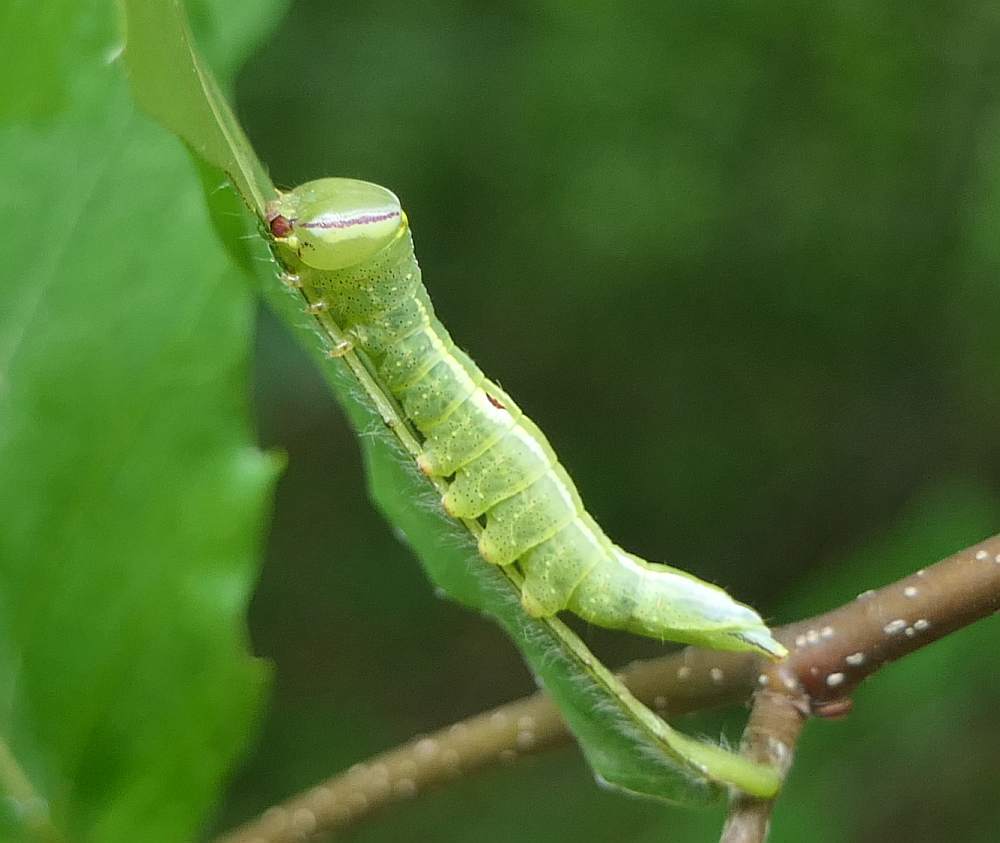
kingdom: Animalia
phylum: Arthropoda
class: Insecta
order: Lepidoptera
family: Notodontidae
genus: Disphragis
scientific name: Disphragis Cecrita guttivitta
